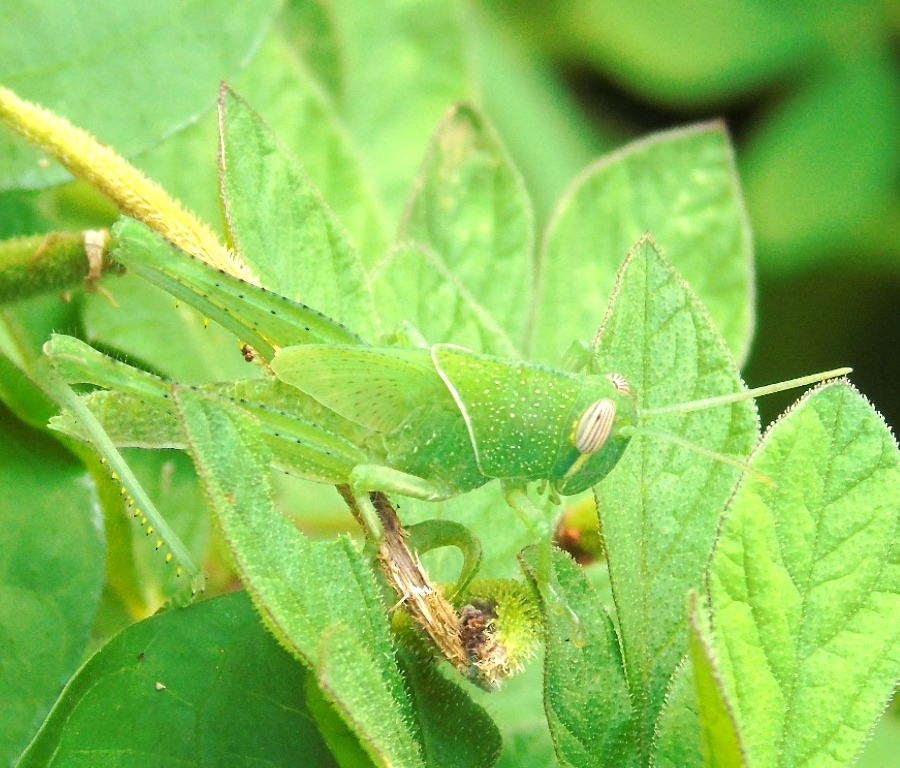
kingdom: Animalia
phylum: Arthropoda
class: Insecta
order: Orthoptera
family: Acrididae
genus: Schistocerca
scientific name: Schistocerca
